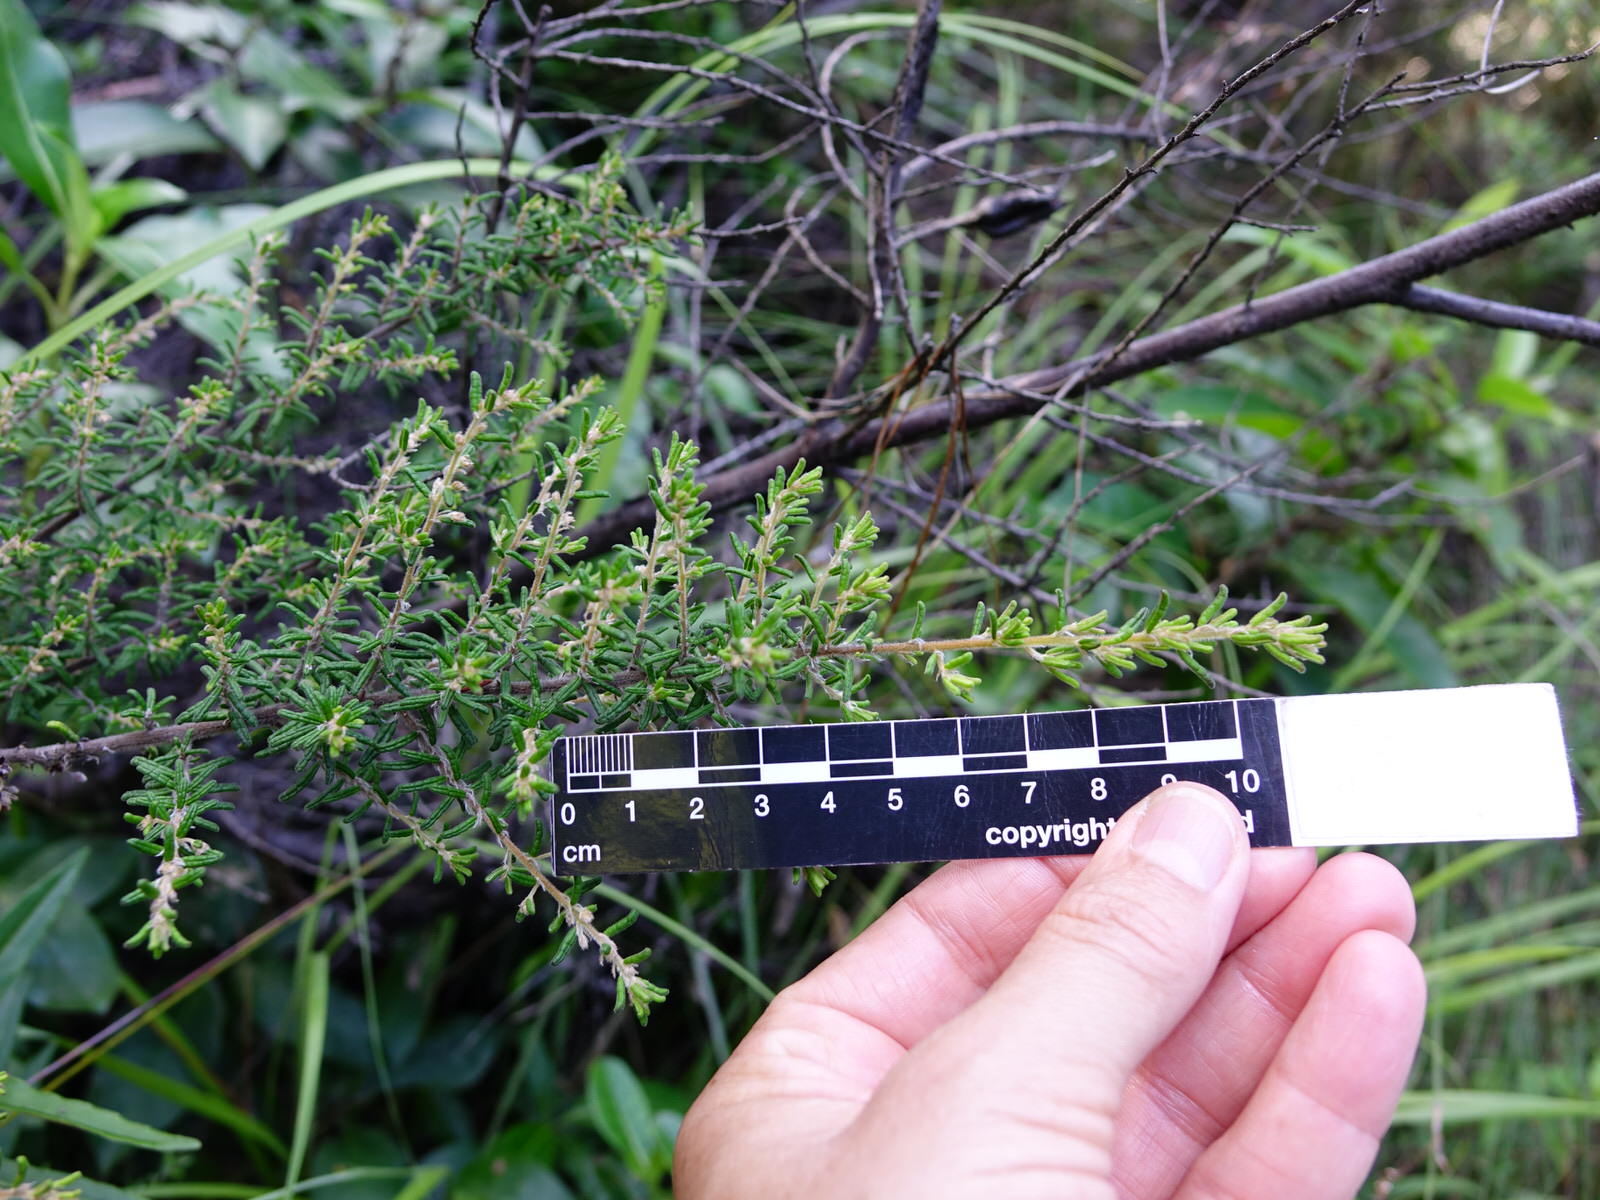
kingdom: Plantae
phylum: Tracheophyta
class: Magnoliopsida
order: Rosales
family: Rhamnaceae
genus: Pomaderris
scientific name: Pomaderris amoena
